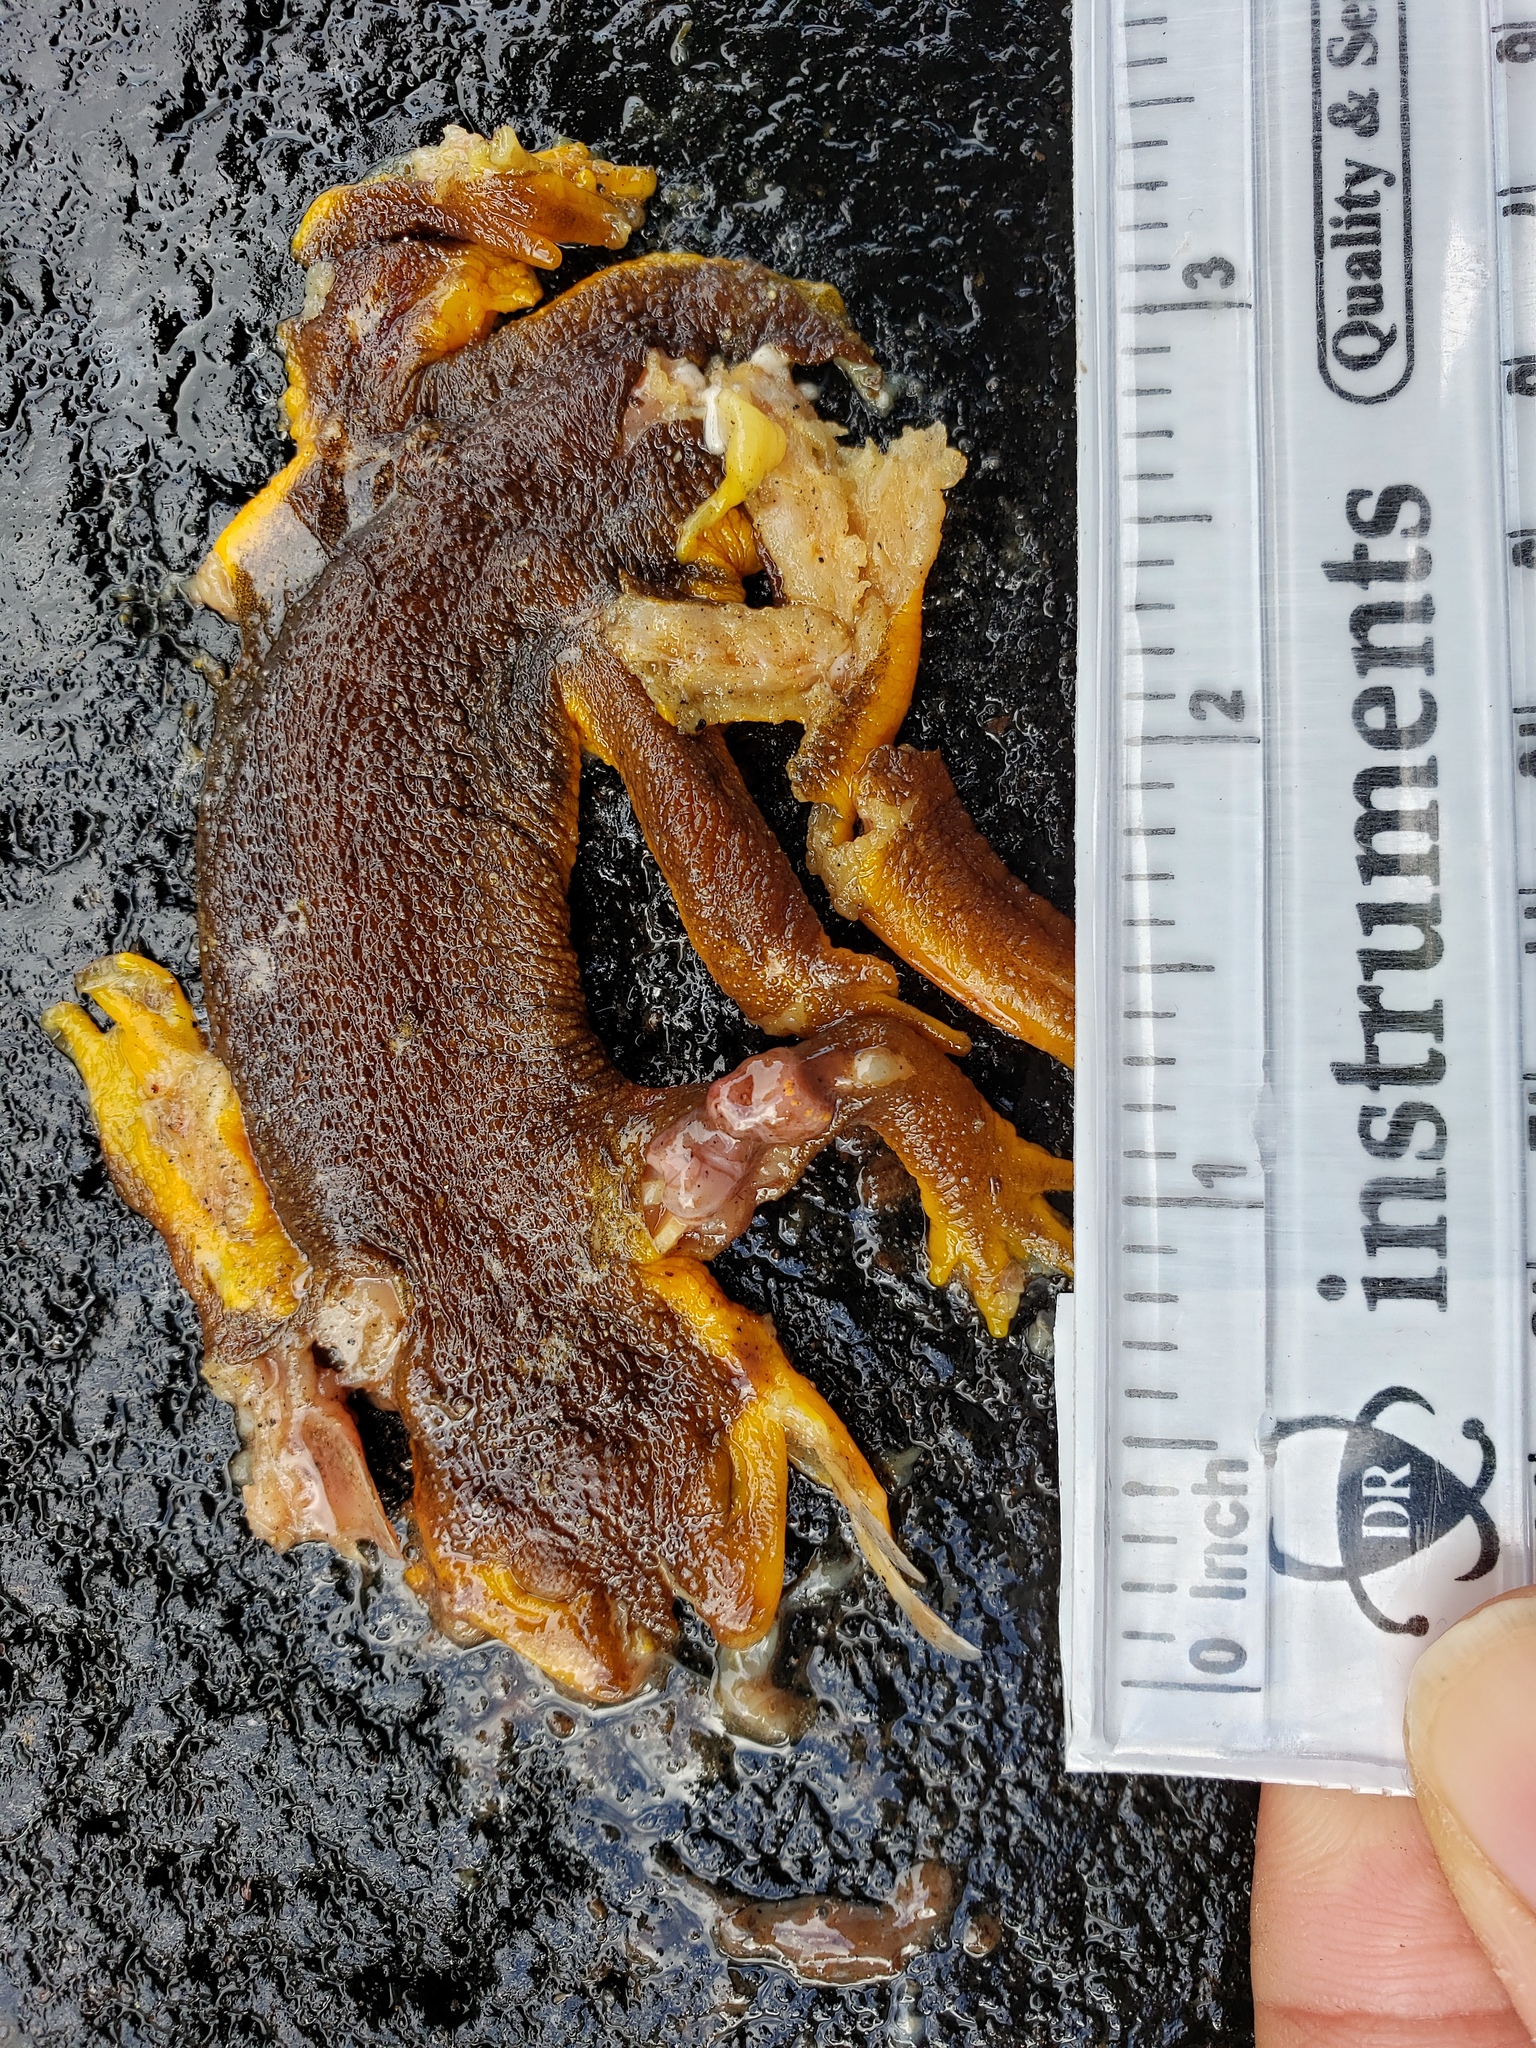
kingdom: Animalia
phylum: Chordata
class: Amphibia
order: Caudata
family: Salamandridae
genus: Taricha
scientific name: Taricha
